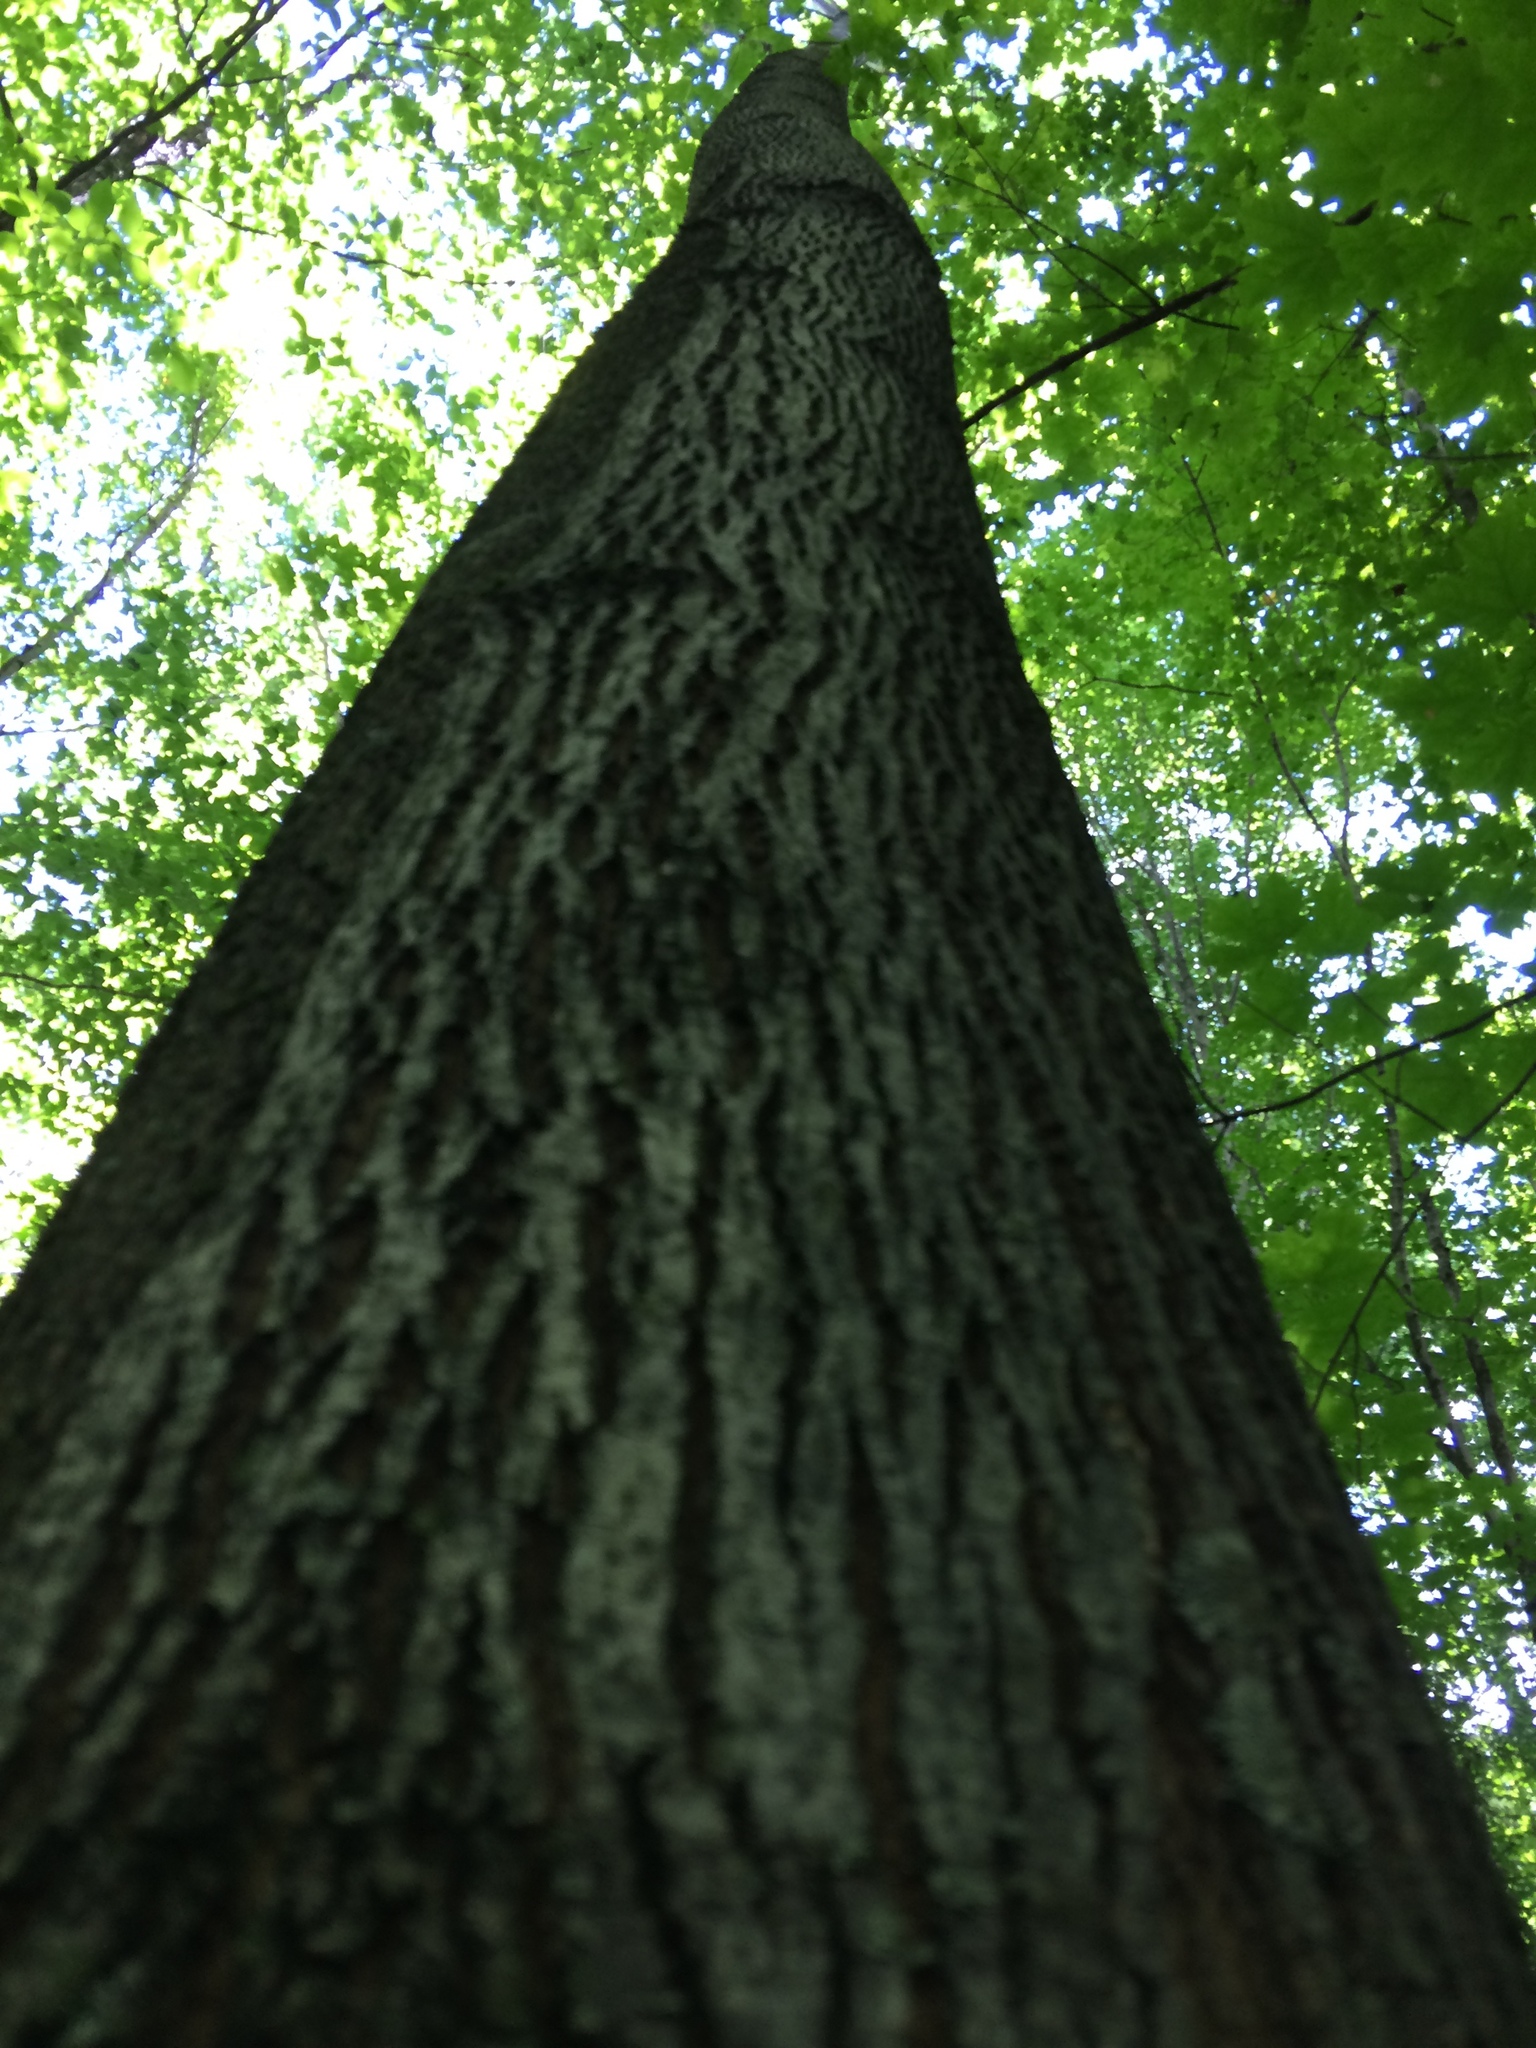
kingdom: Plantae
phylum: Tracheophyta
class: Magnoliopsida
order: Lamiales
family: Oleaceae
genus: Fraxinus
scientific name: Fraxinus americana
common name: White ash
